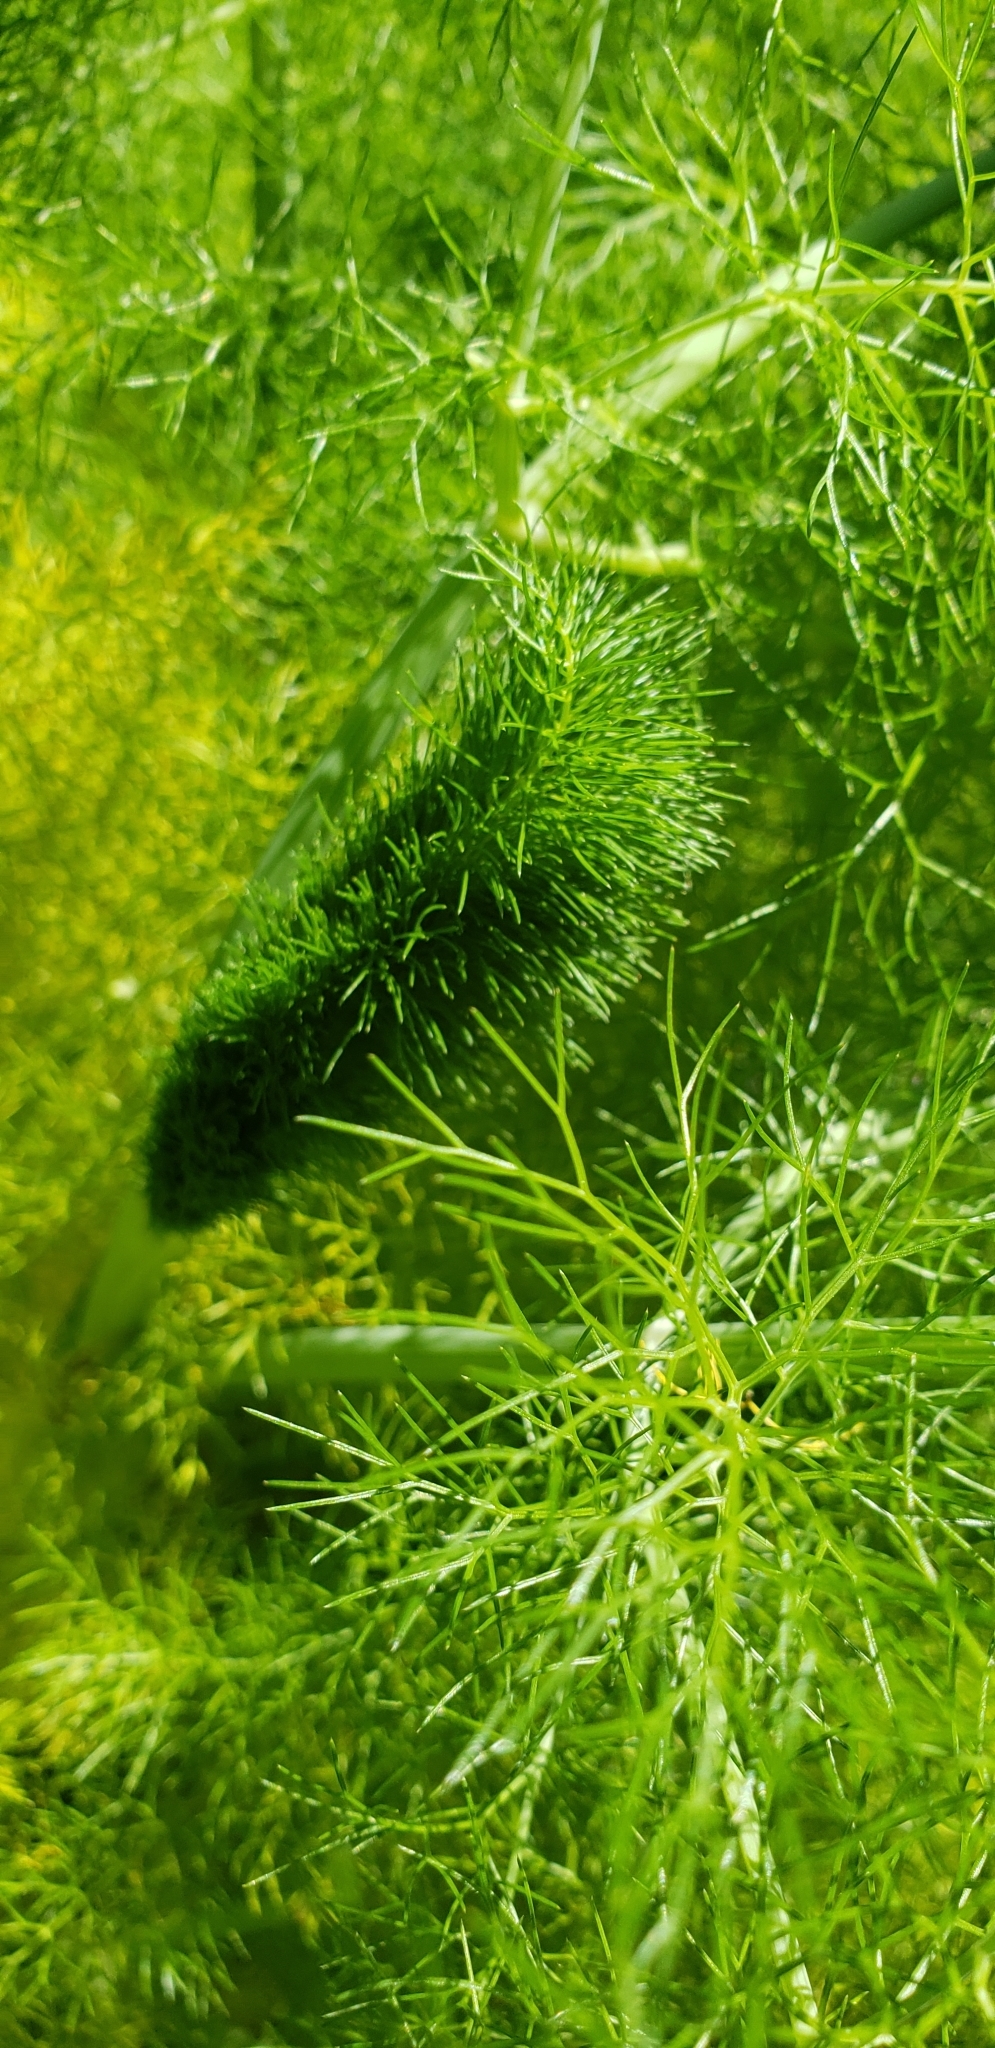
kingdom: Plantae
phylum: Tracheophyta
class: Magnoliopsida
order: Apiales
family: Apiaceae
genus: Foeniculum
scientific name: Foeniculum vulgare
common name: Fennel
